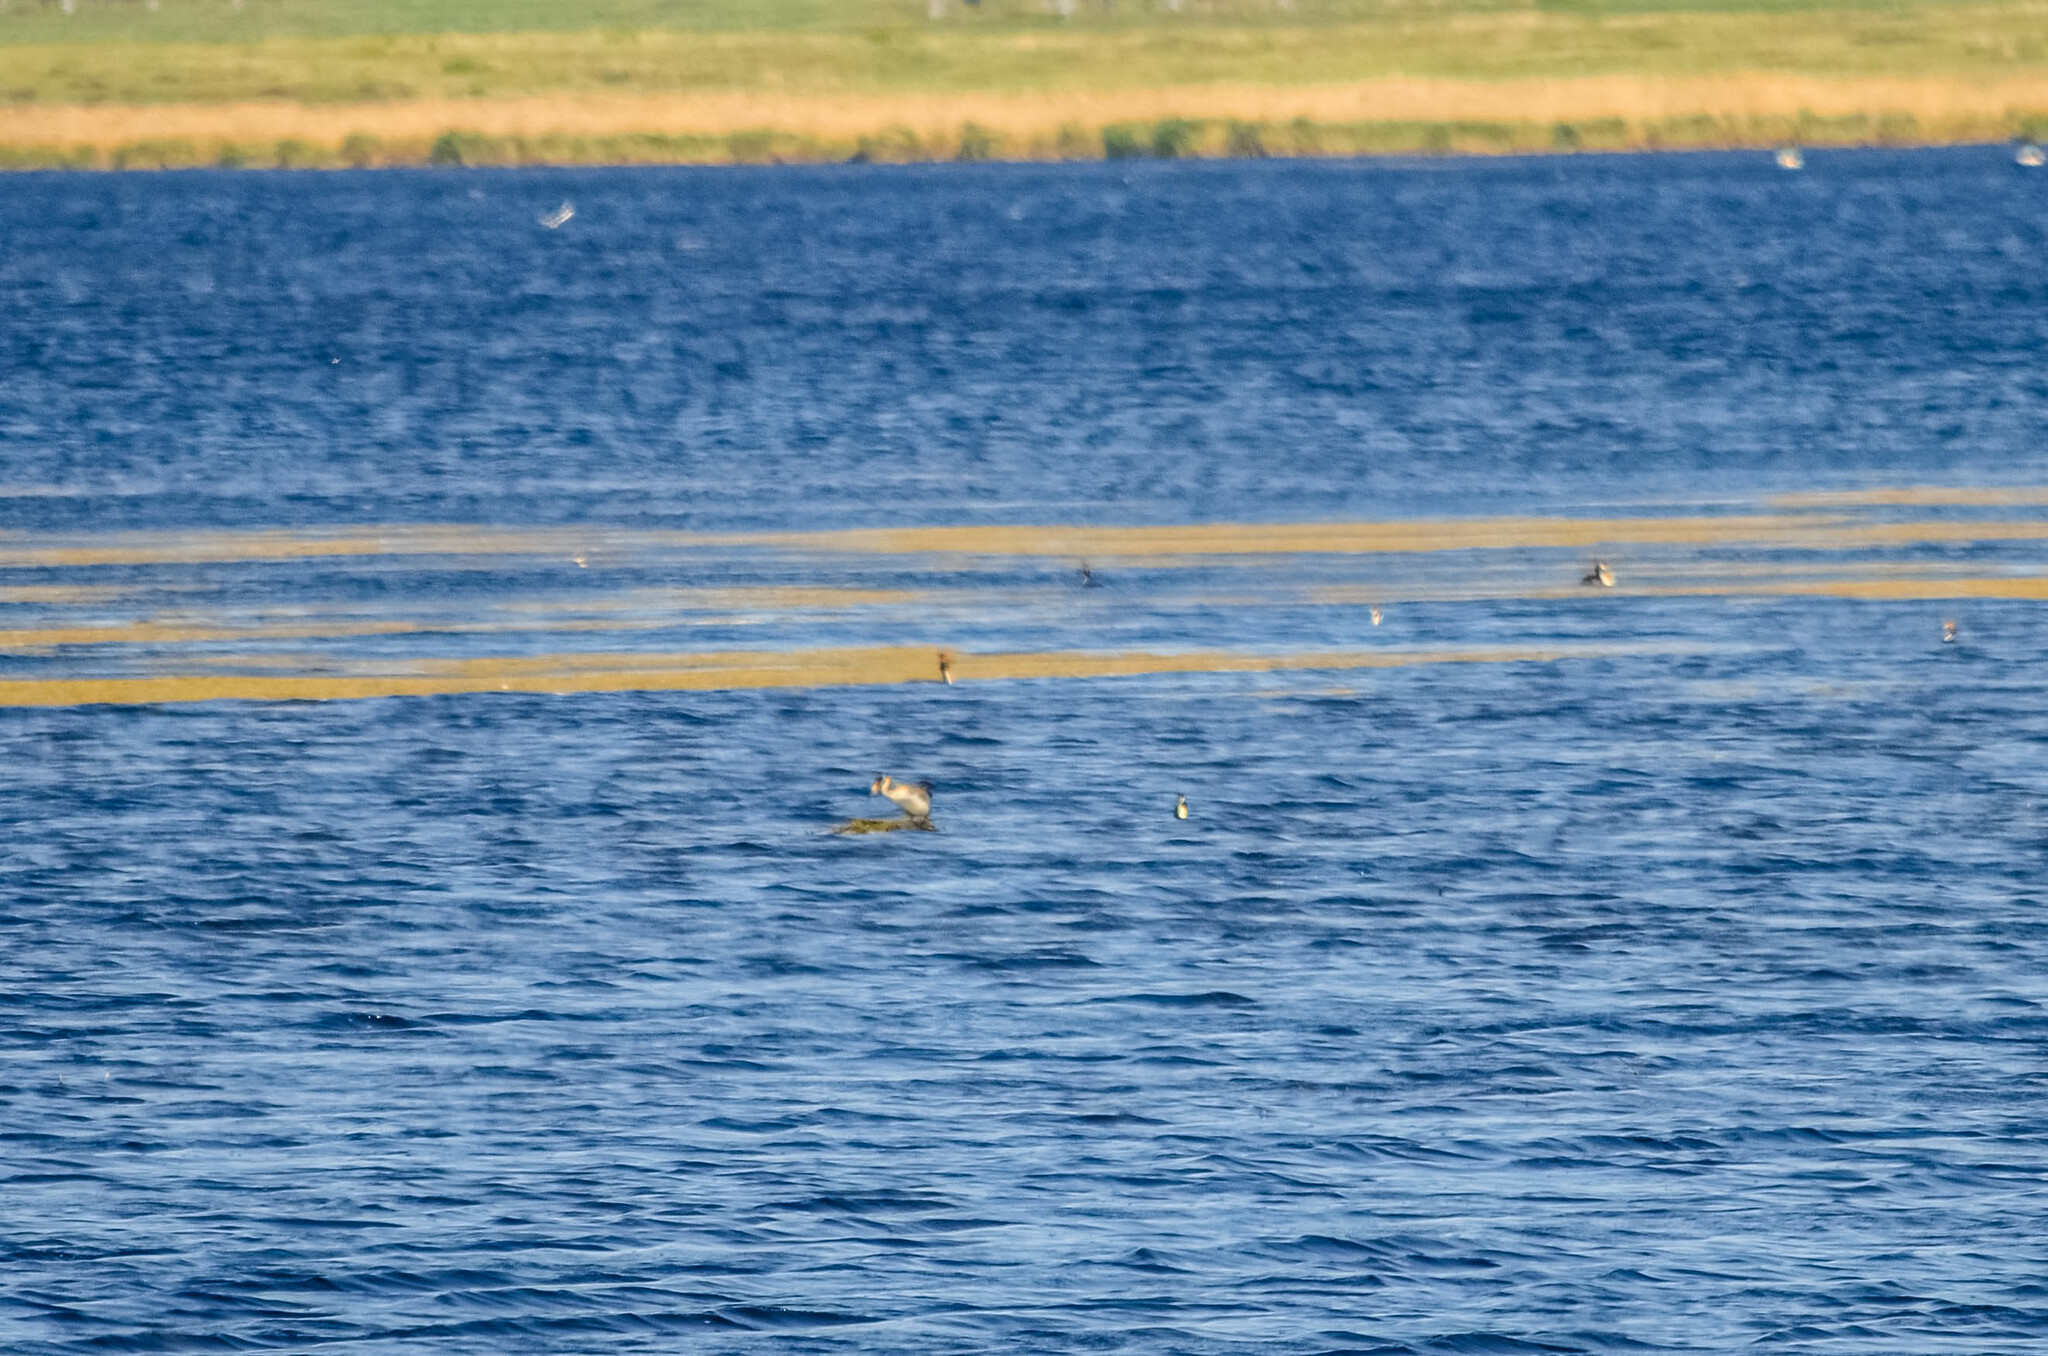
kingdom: Animalia
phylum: Chordata
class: Aves
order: Podicipediformes
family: Podicipedidae
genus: Podiceps
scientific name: Podiceps cristatus
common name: Great crested grebe
